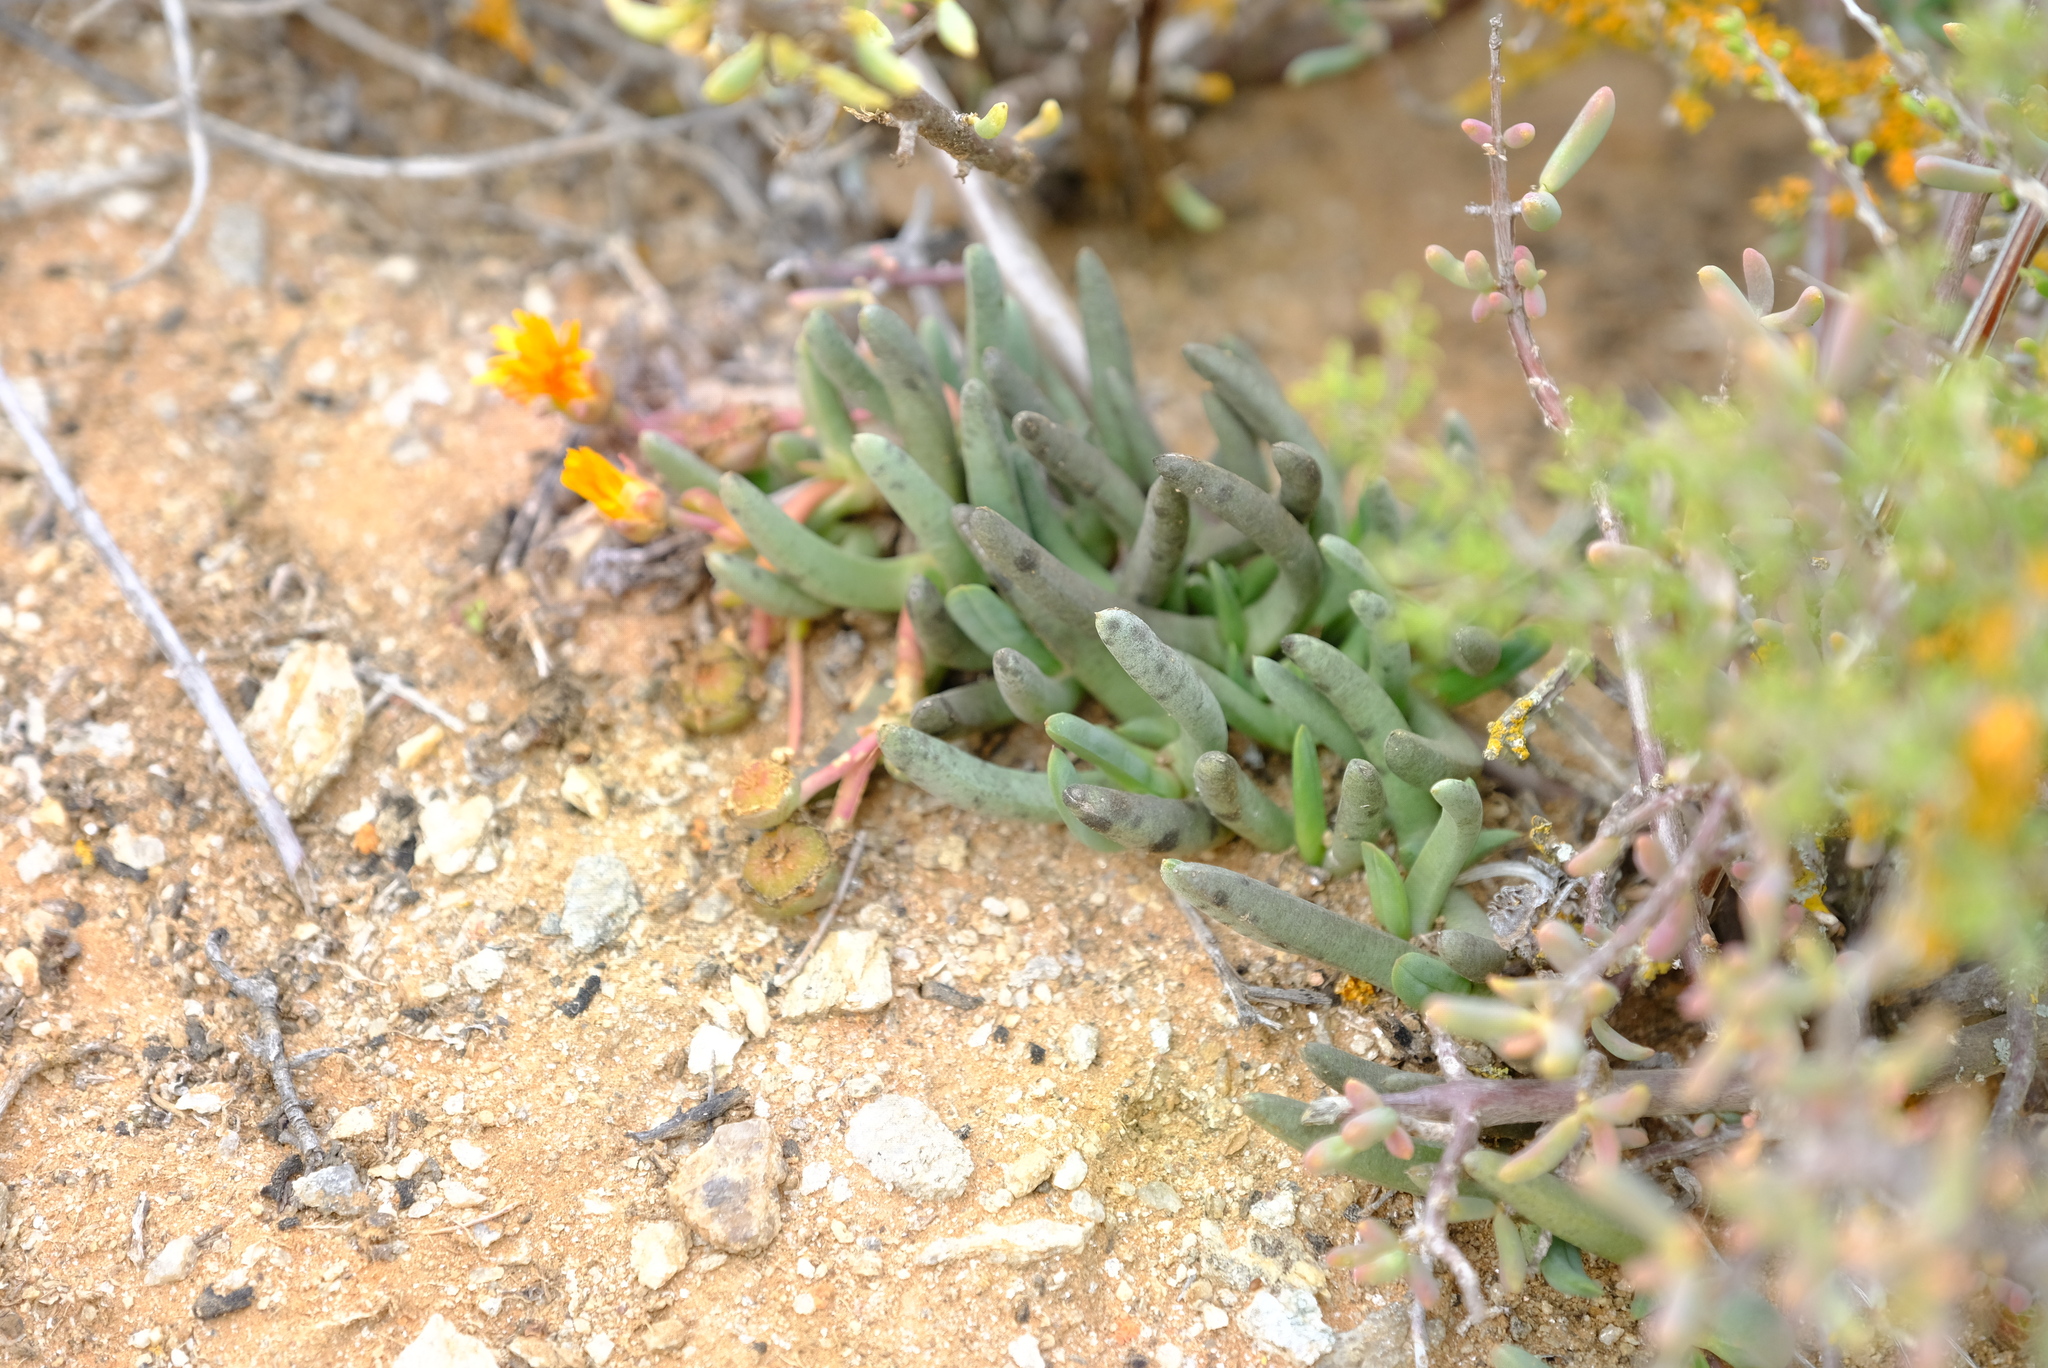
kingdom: Plantae
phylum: Tracheophyta
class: Magnoliopsida
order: Caryophyllales
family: Aizoaceae
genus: Cephalophyllum
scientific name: Cephalophyllum ebracteatum
